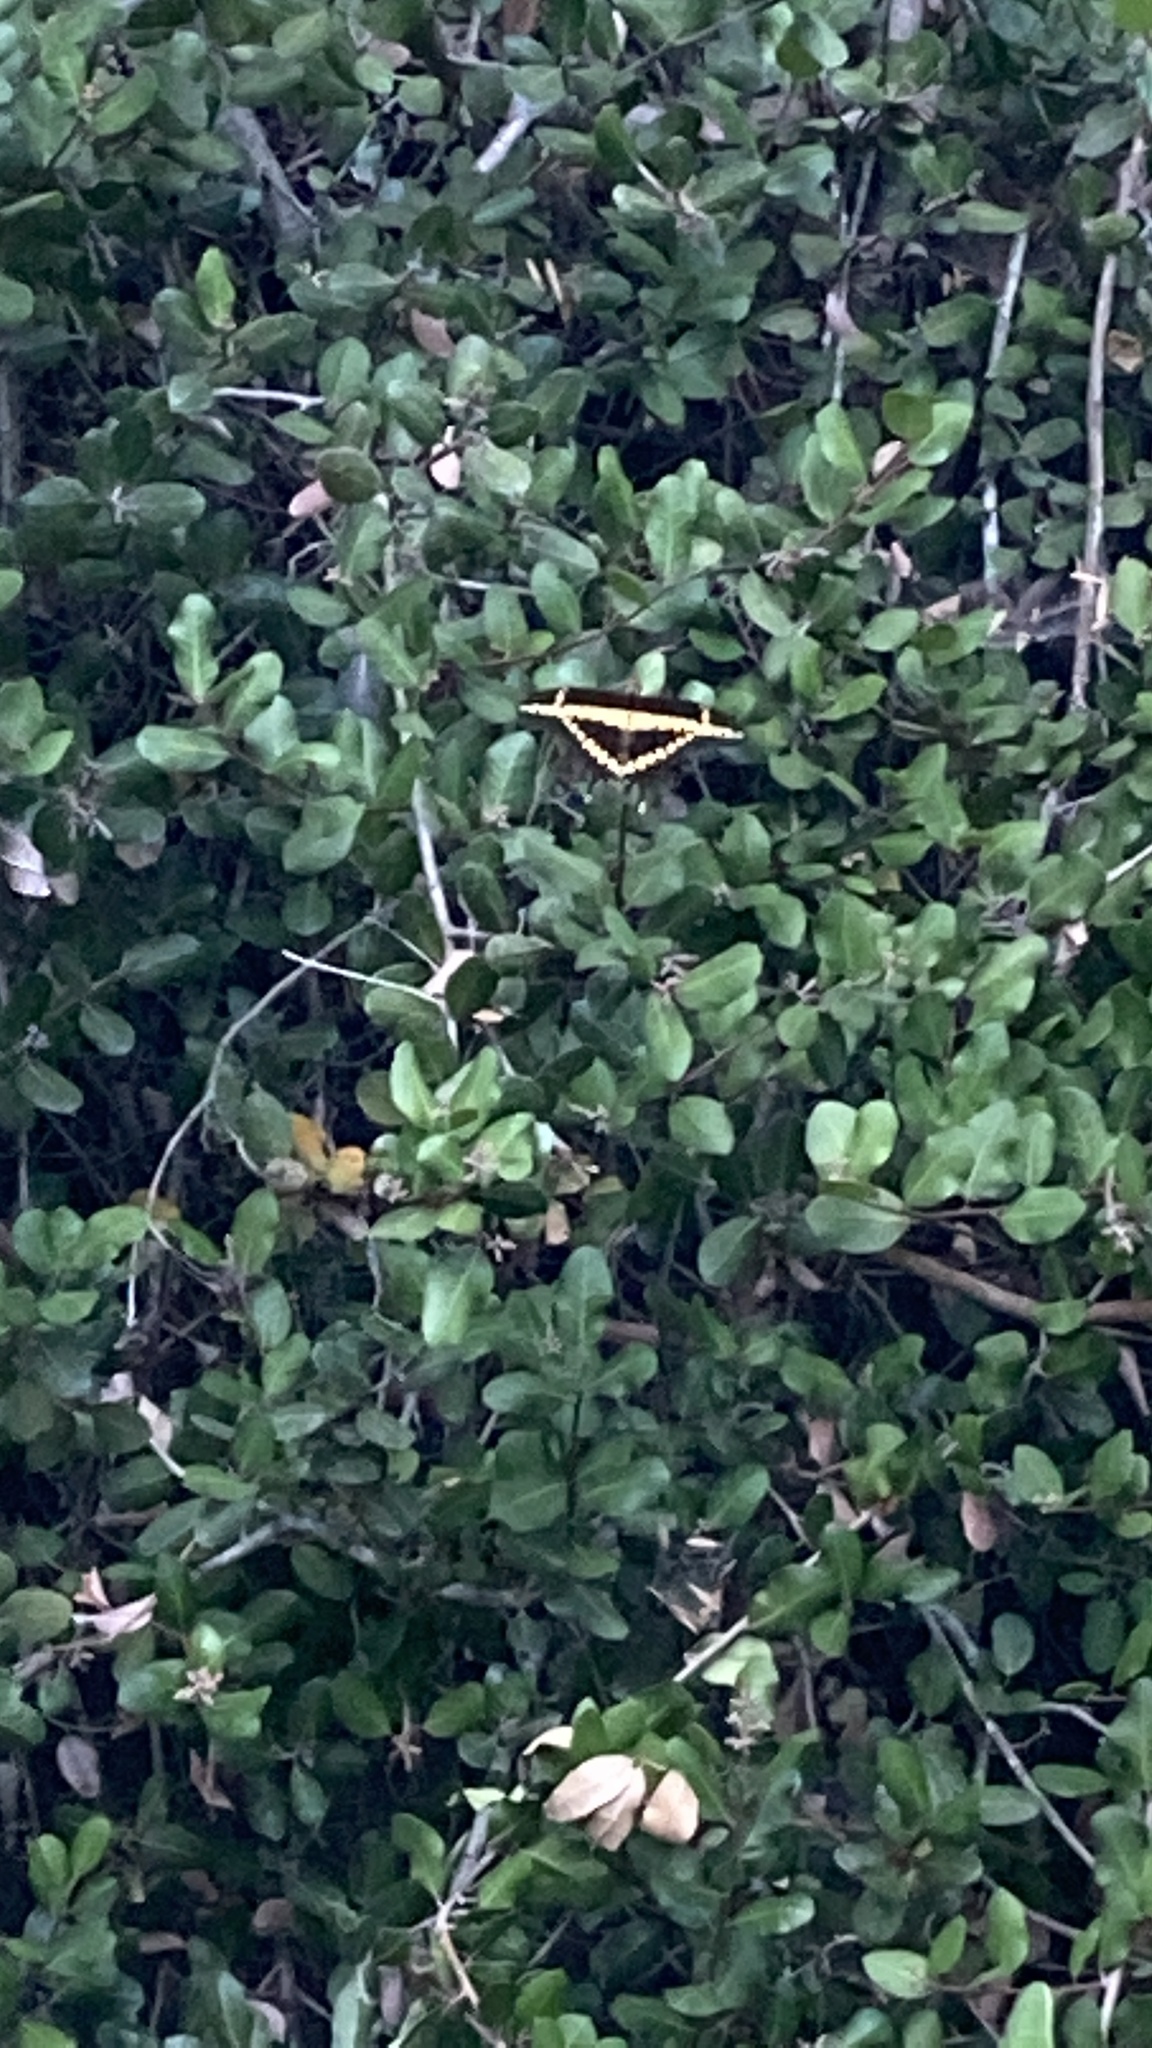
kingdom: Animalia
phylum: Arthropoda
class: Insecta
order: Lepidoptera
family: Papilionidae
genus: Papilio
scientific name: Papilio rumiko
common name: Western giant swallowtail
